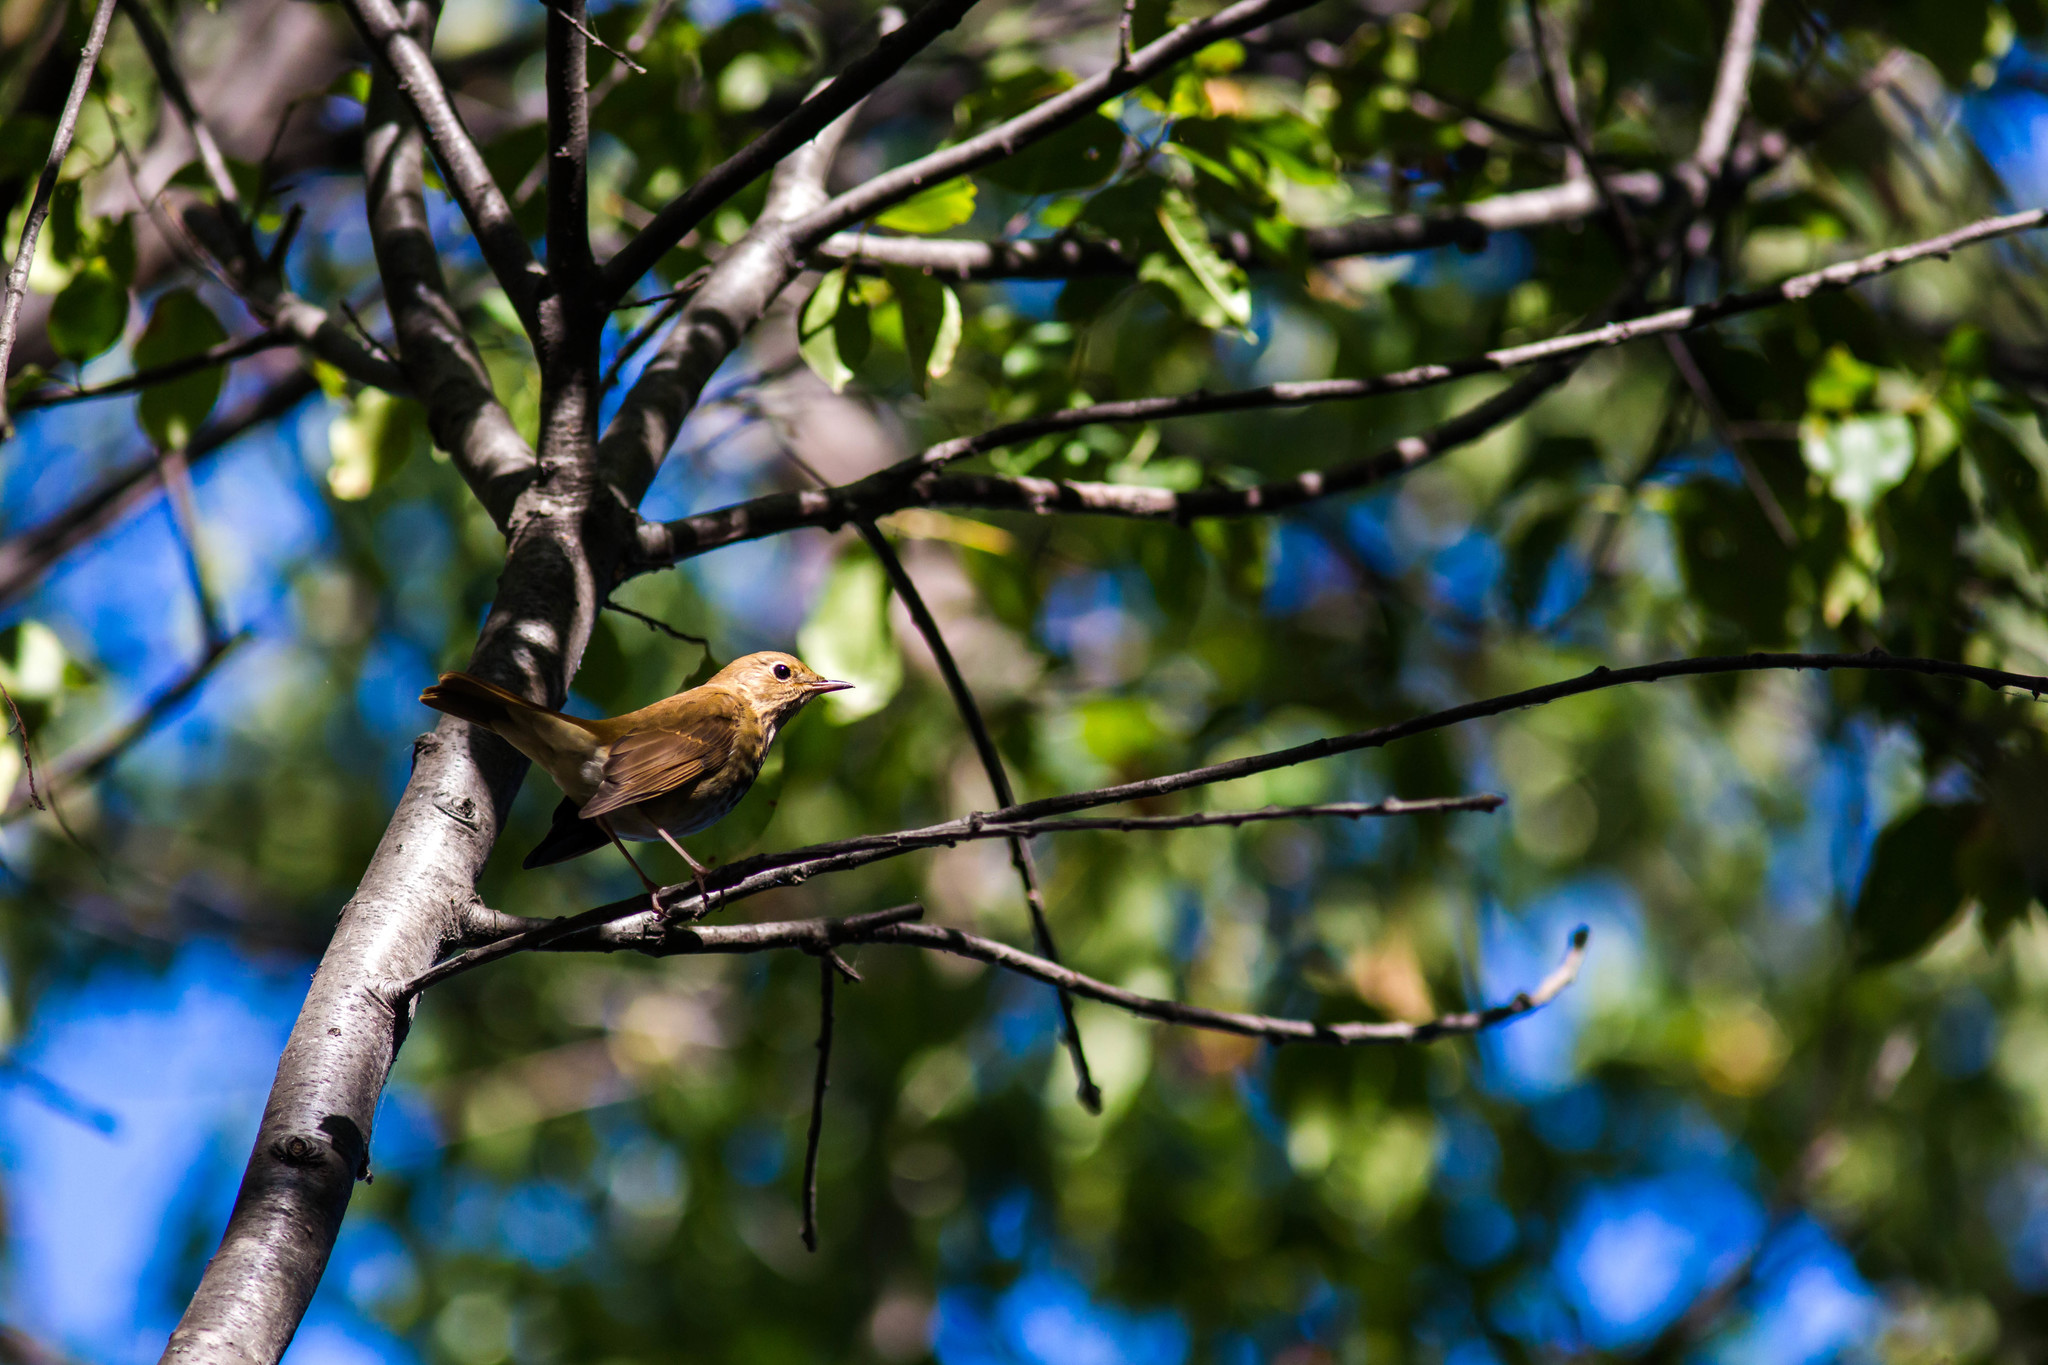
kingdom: Animalia
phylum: Chordata
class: Aves
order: Passeriformes
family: Turdidae
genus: Catharus
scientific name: Catharus guttatus
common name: Hermit thrush
